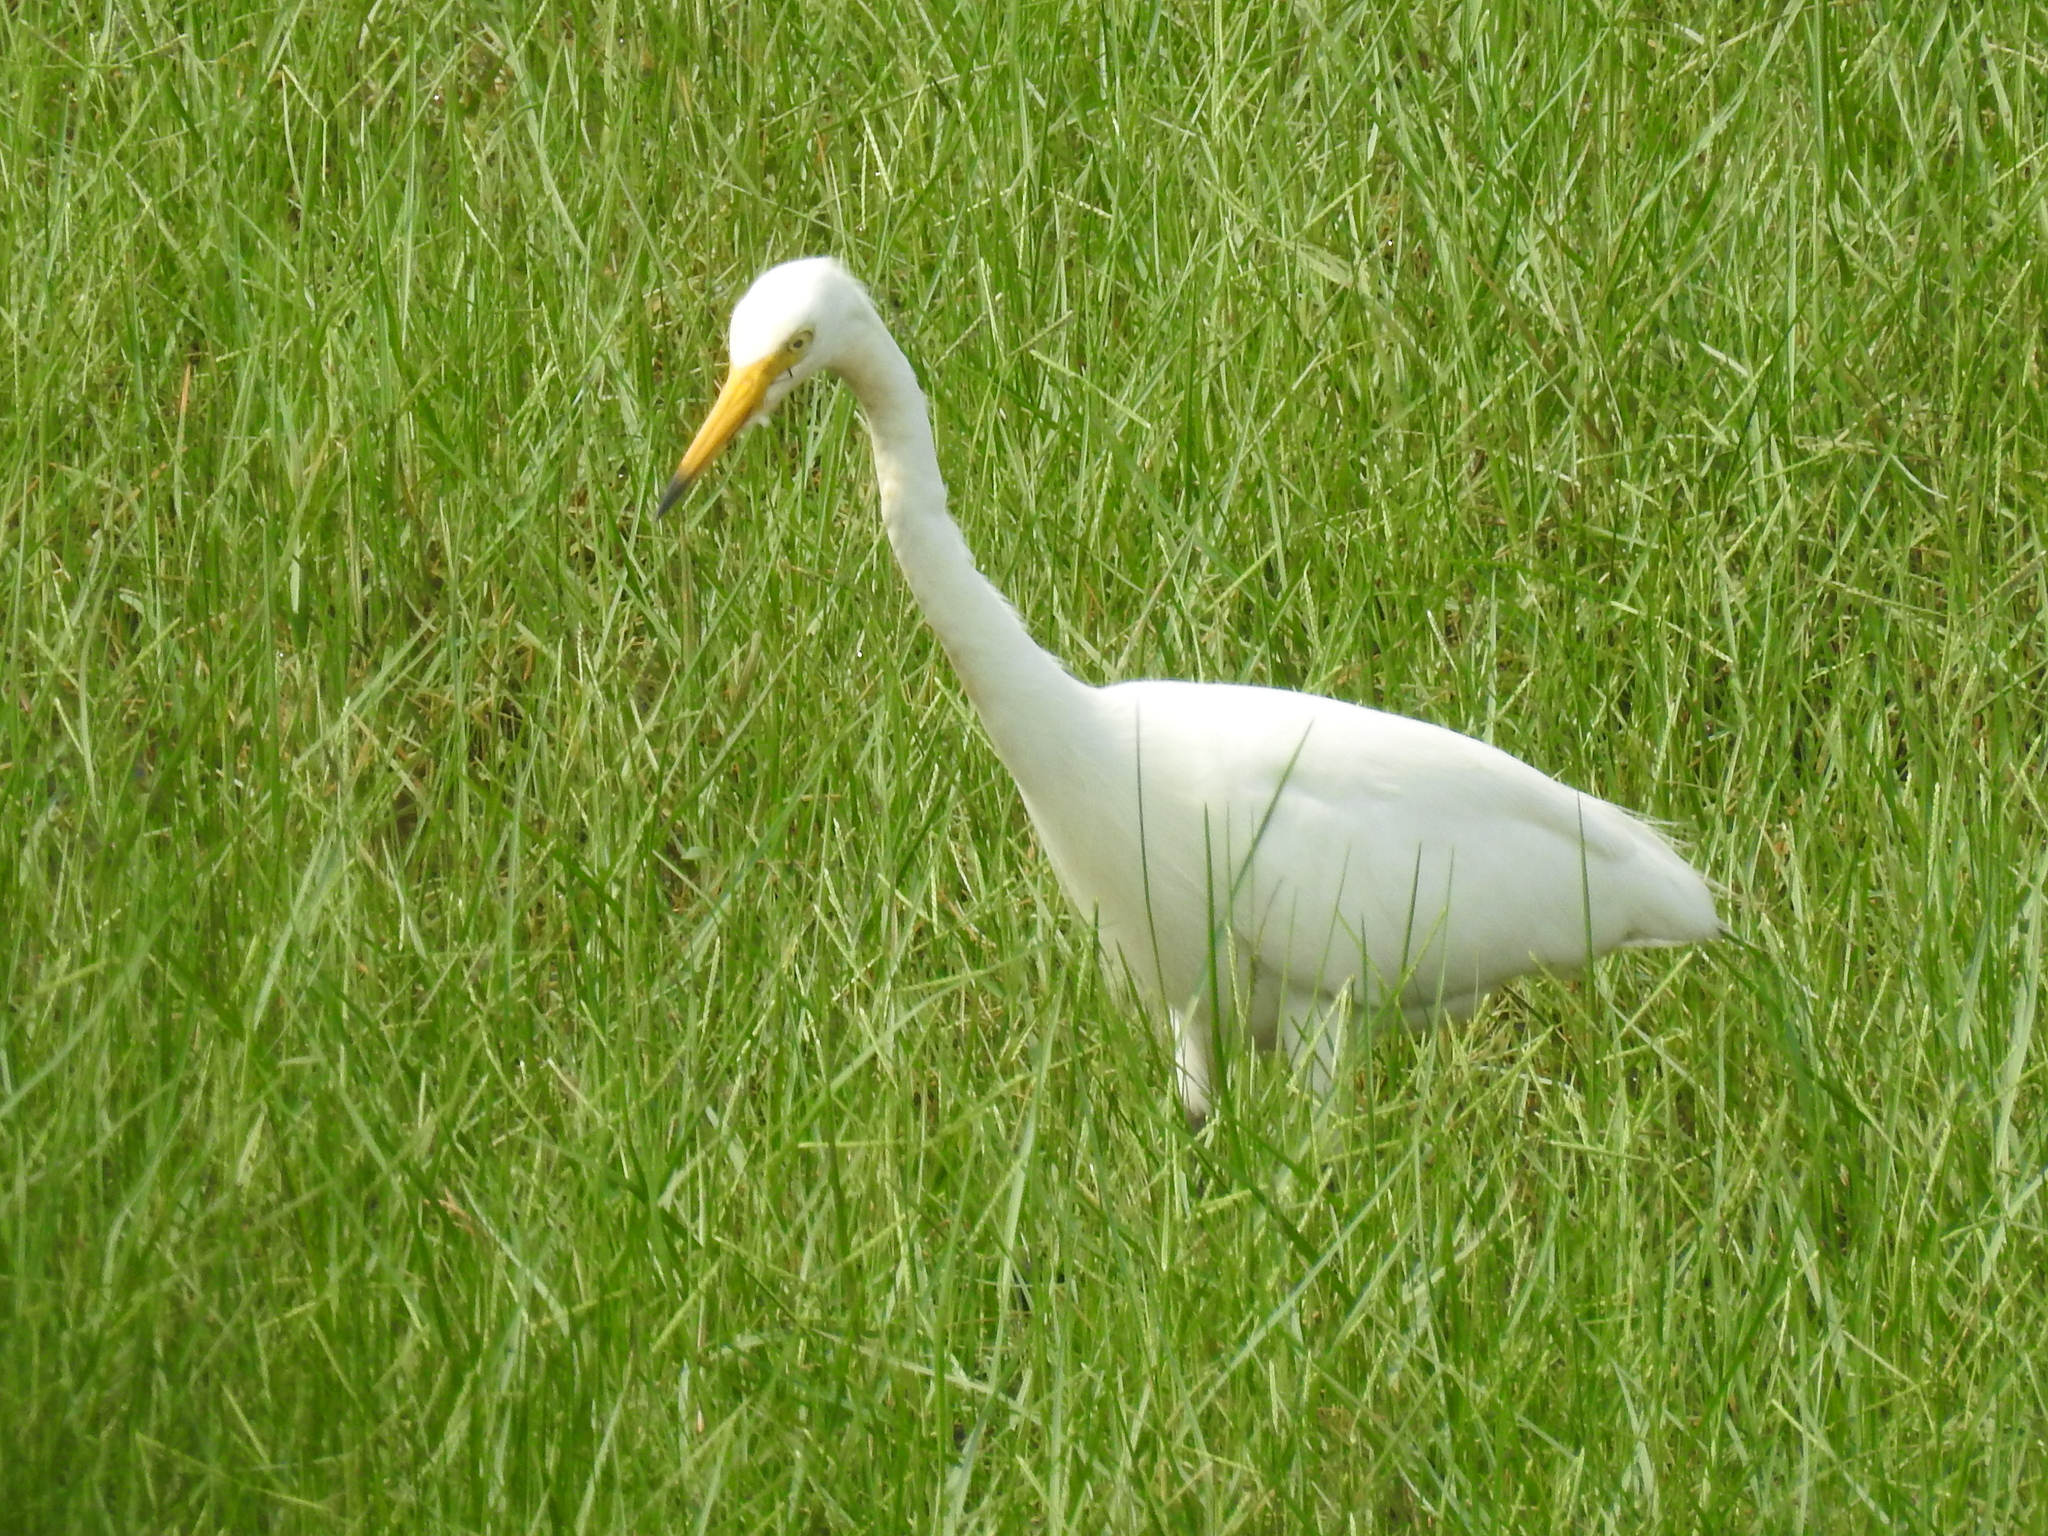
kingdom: Animalia
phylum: Chordata
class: Aves
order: Pelecaniformes
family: Ardeidae
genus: Egretta
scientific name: Egretta intermedia
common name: Intermediate egret
